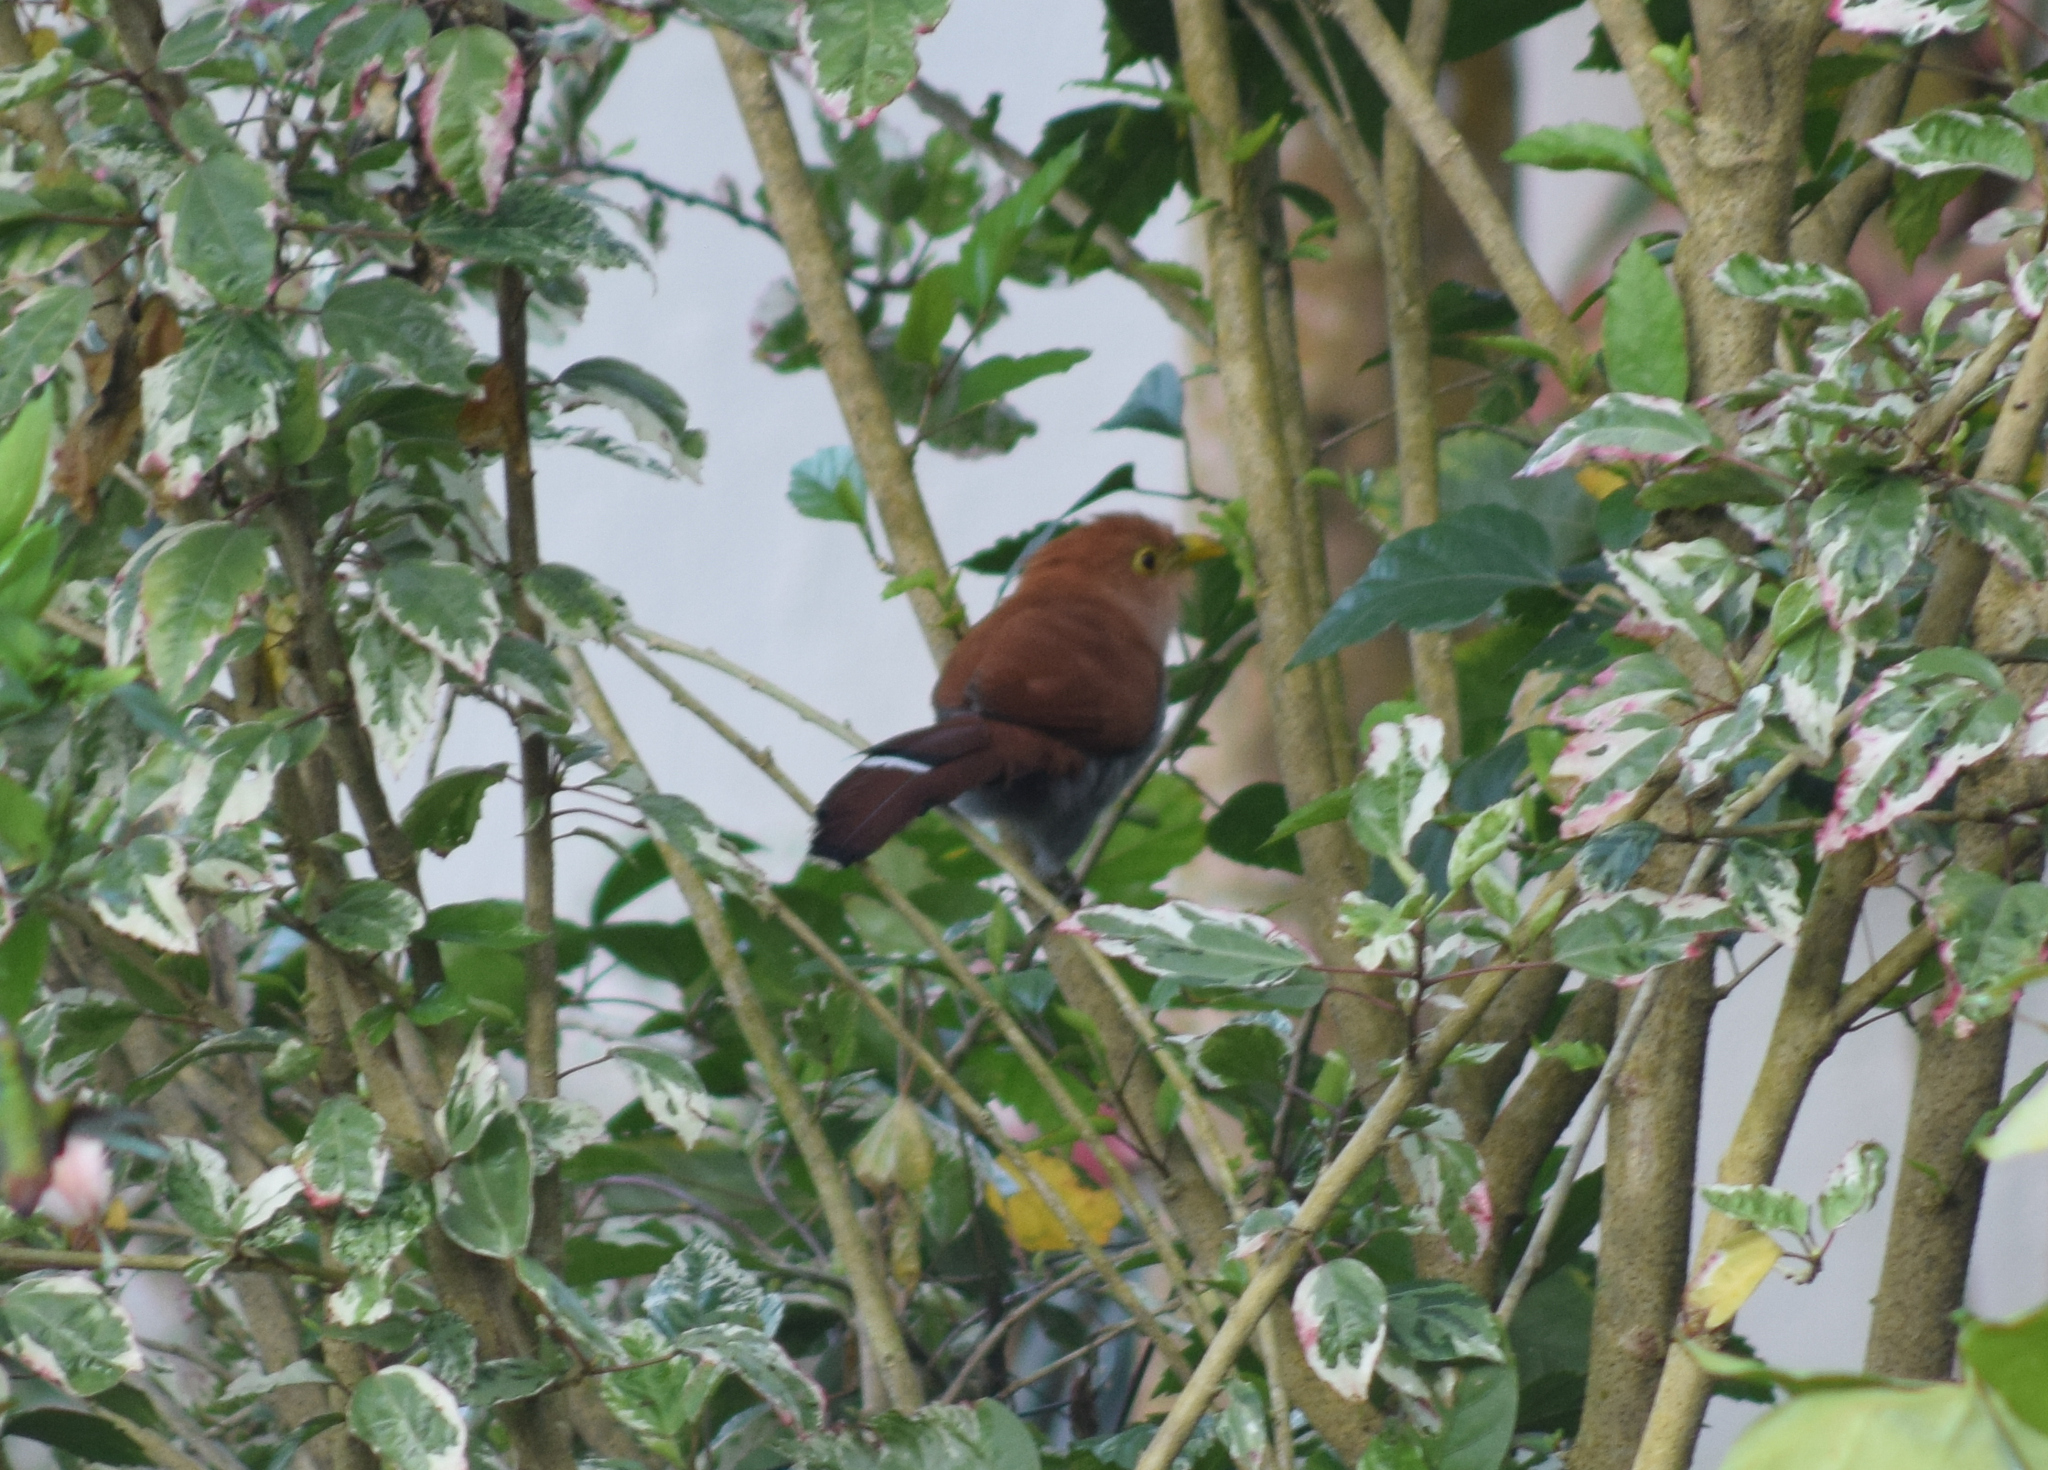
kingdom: Animalia
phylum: Chordata
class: Aves
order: Cuculiformes
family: Cuculidae
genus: Piaya
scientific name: Piaya cayana
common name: Squirrel cuckoo
